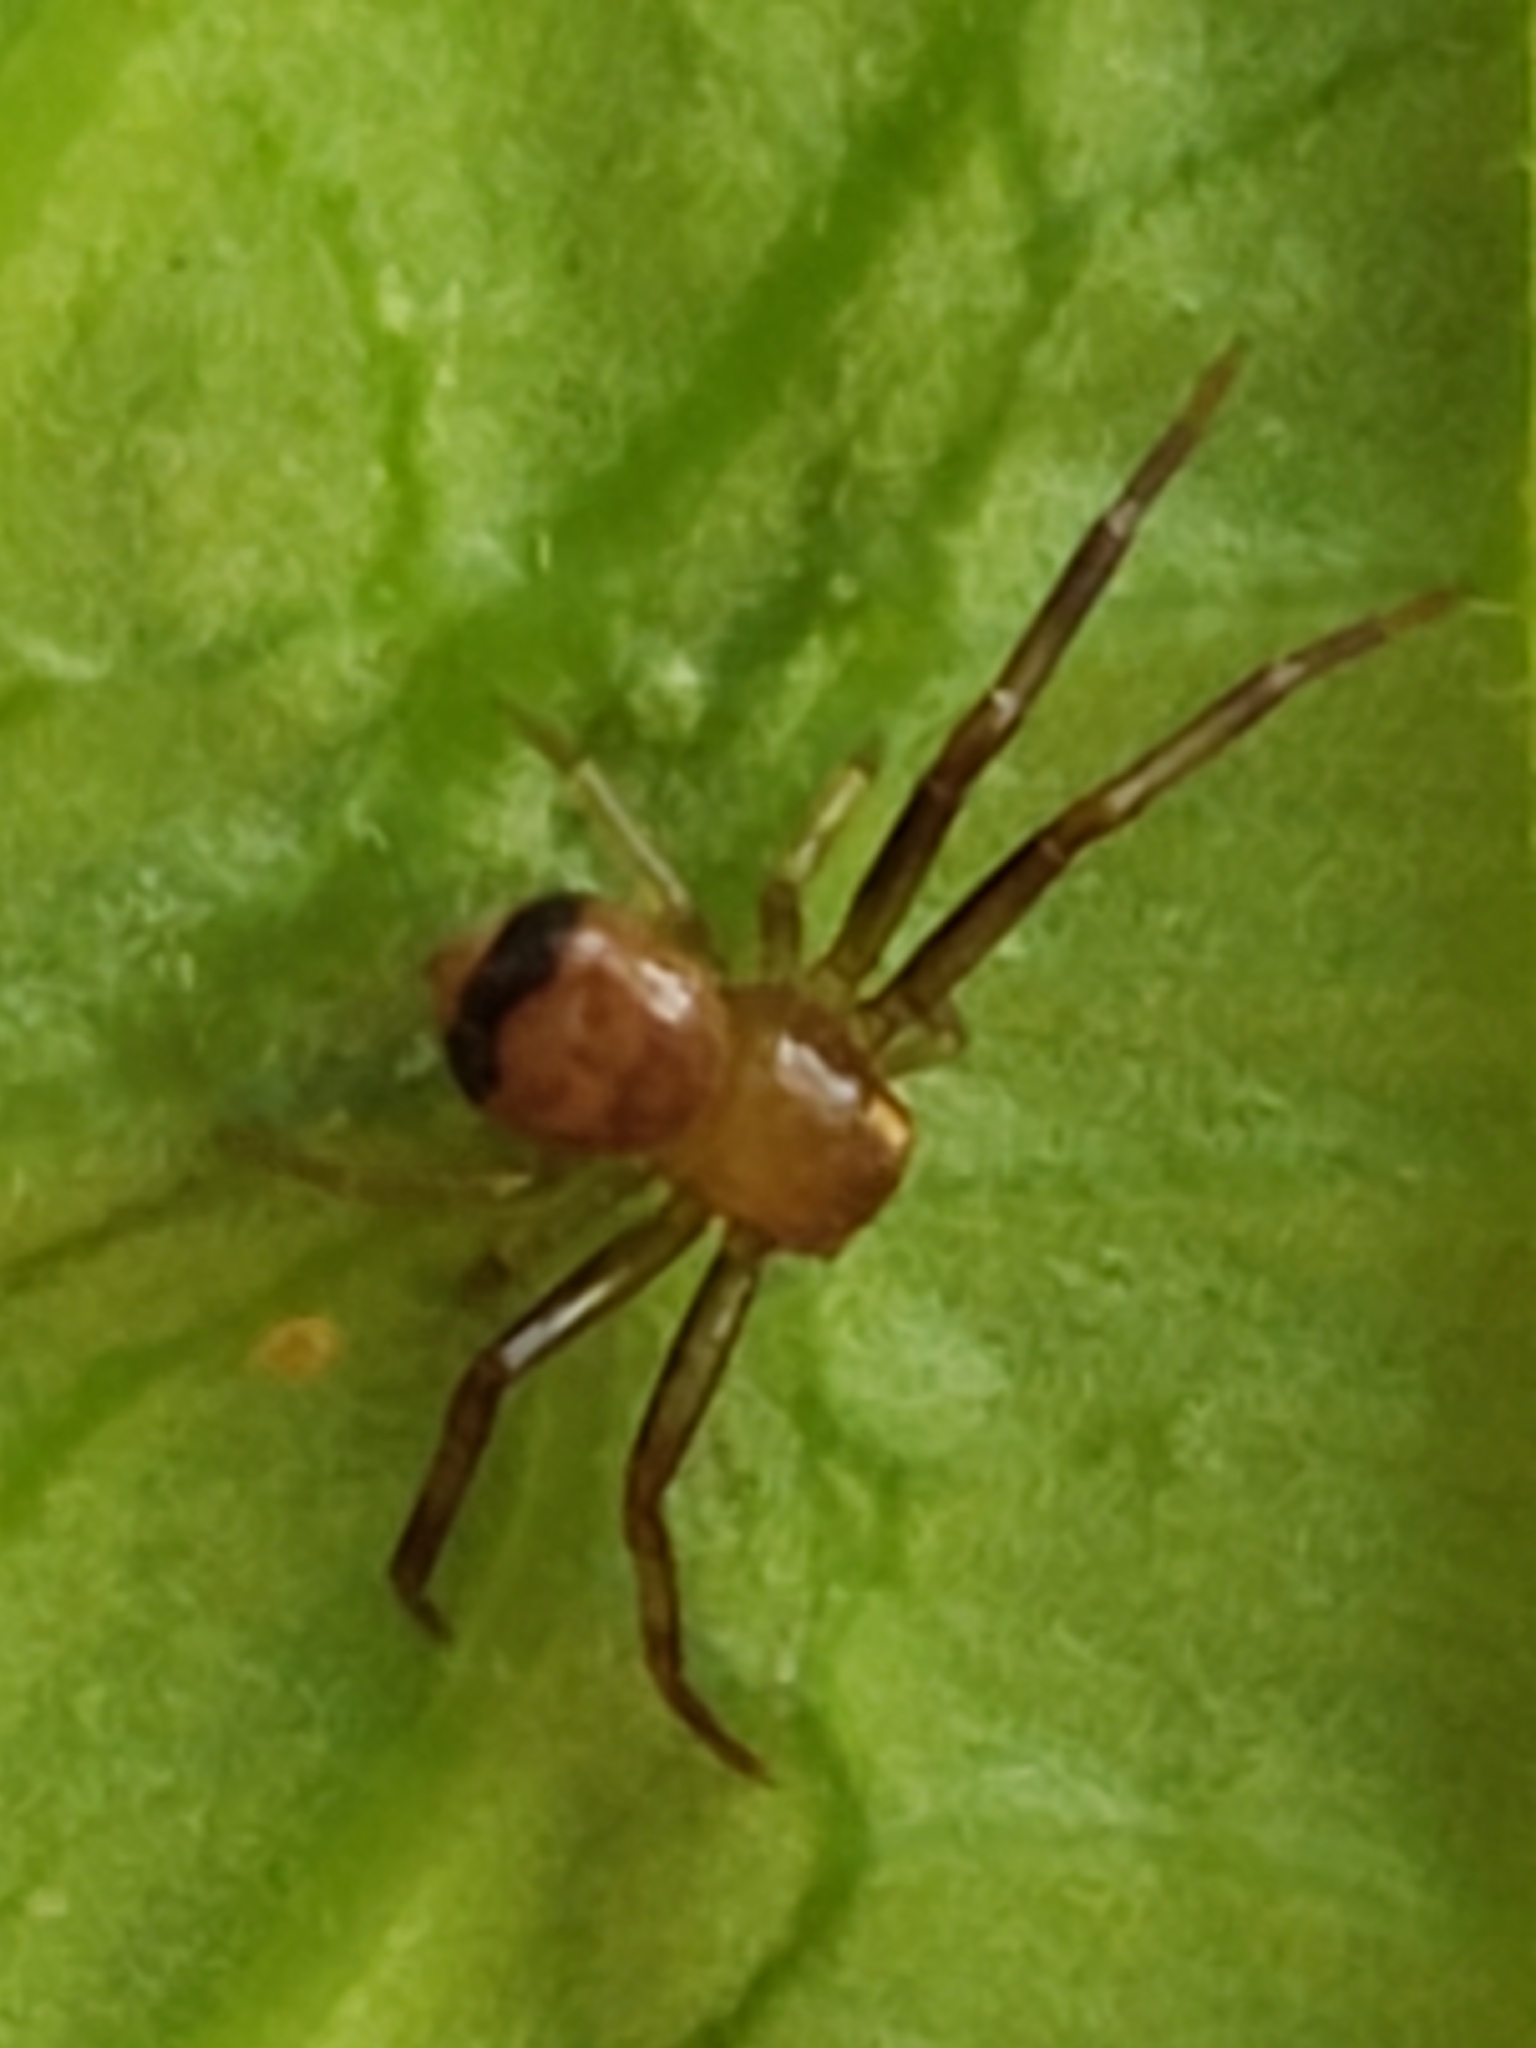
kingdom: Animalia
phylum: Arthropoda
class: Arachnida
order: Araneae
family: Thomisidae
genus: Synema
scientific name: Synema parvulum
